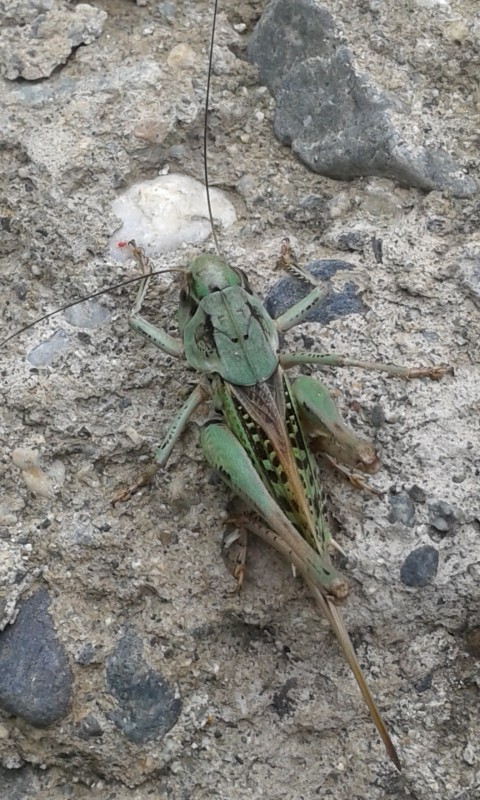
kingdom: Animalia
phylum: Arthropoda
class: Insecta
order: Orthoptera
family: Tettigoniidae
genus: Decticus
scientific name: Decticus verrucivorus
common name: Wart-biter
